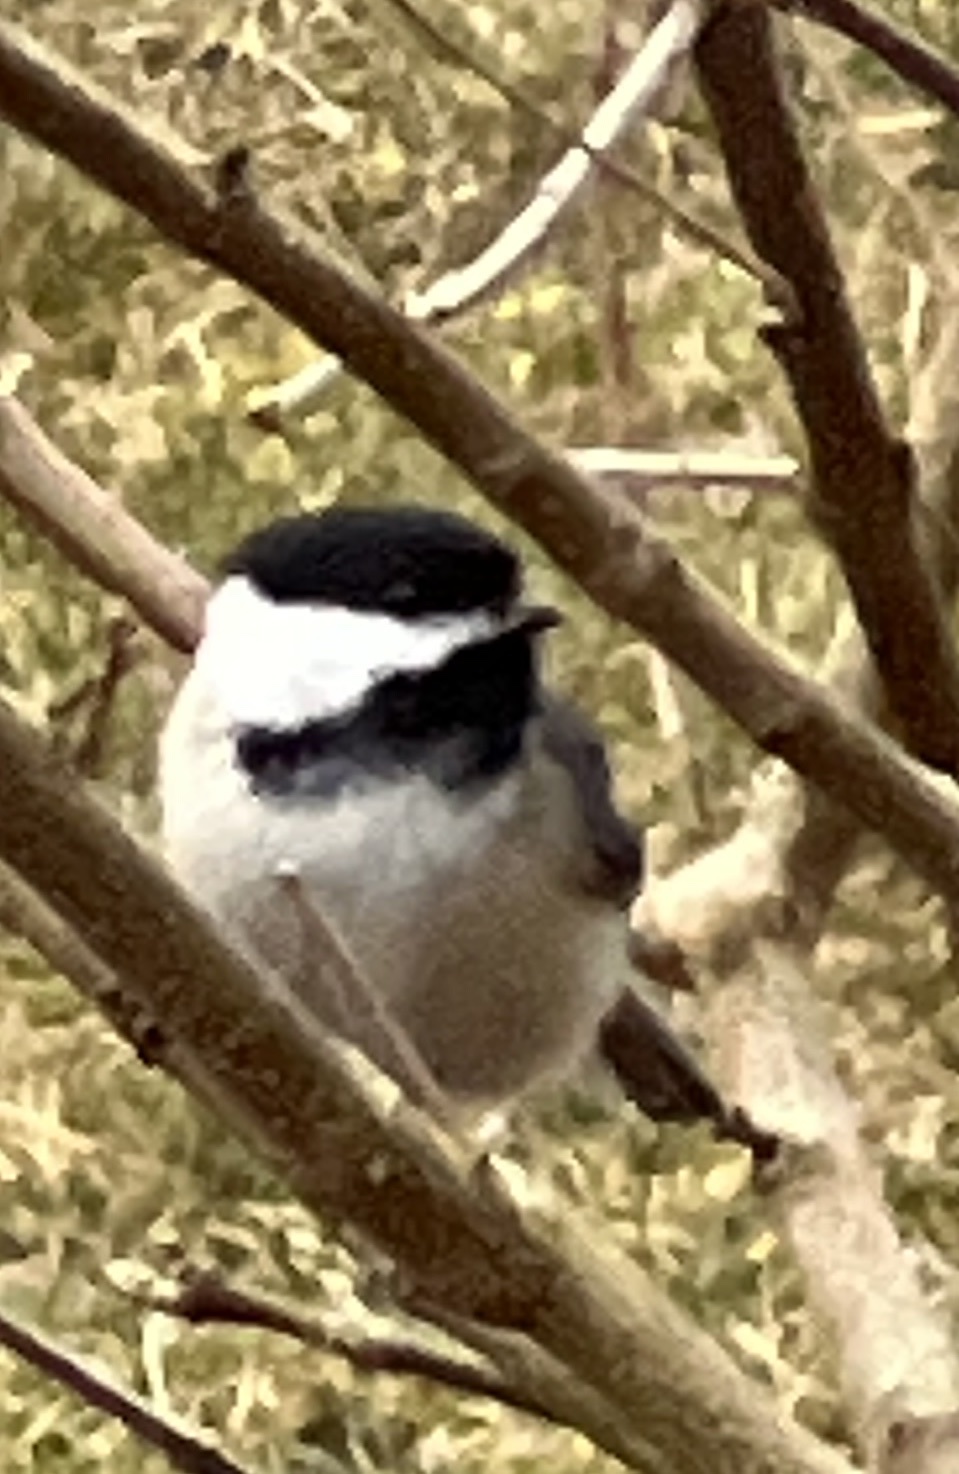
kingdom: Animalia
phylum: Chordata
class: Aves
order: Passeriformes
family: Paridae
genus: Poecile
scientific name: Poecile atricapillus
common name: Black-capped chickadee
